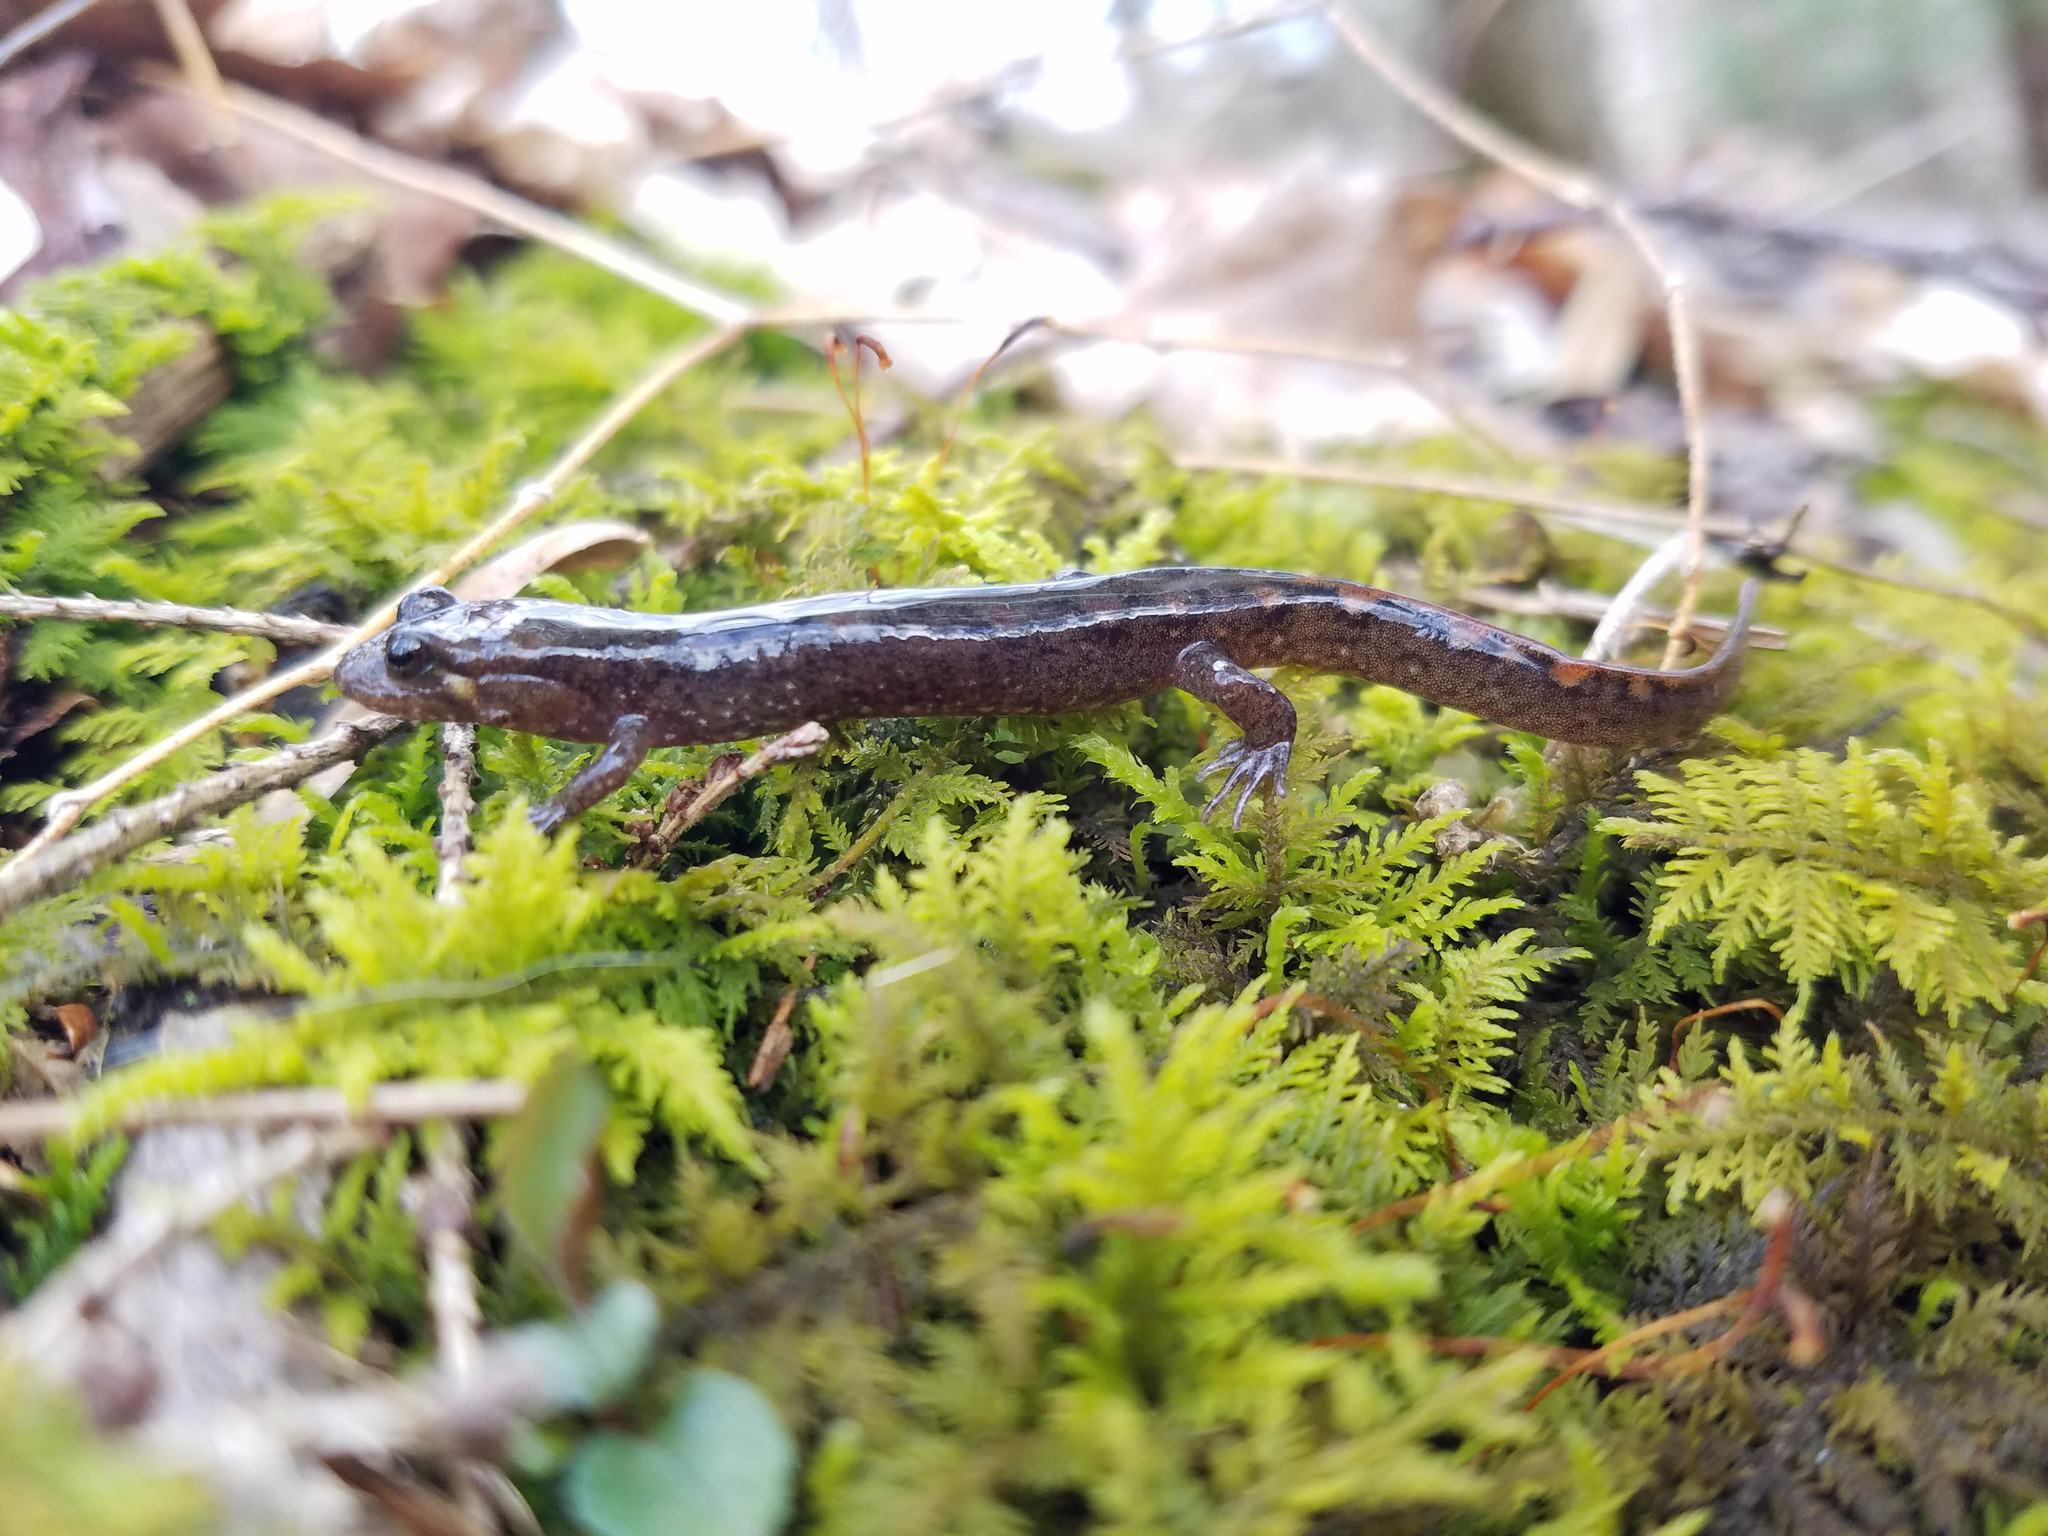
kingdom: Animalia
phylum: Chordata
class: Amphibia
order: Caudata
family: Plethodontidae
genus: Desmognathus
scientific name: Desmognathus monticola
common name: Seal salamander
